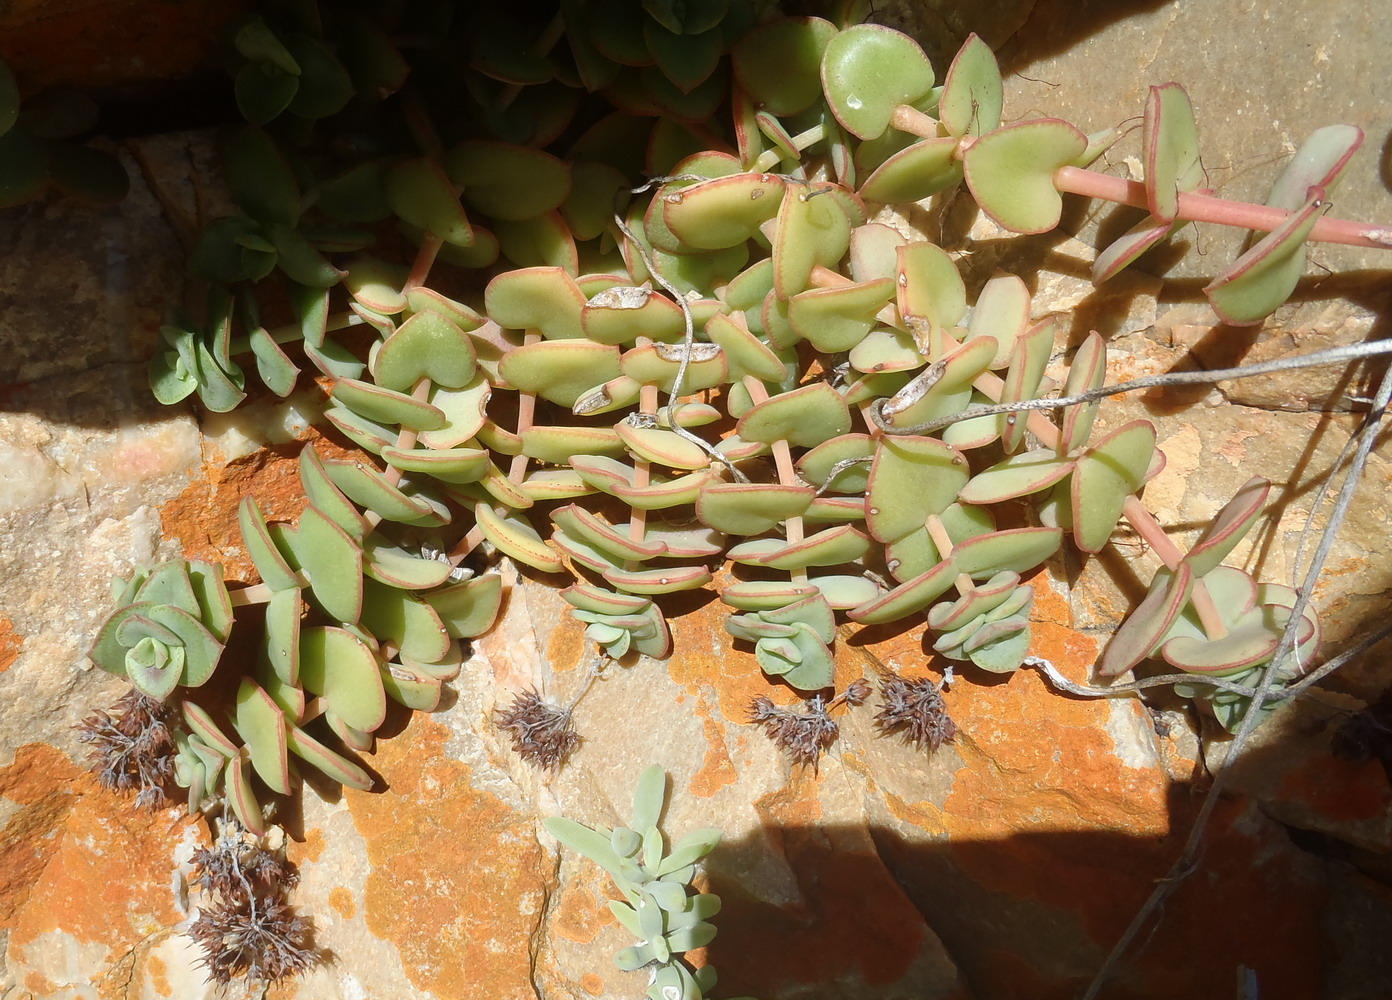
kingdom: Plantae
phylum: Tracheophyta
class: Magnoliopsida
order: Saxifragales
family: Crassulaceae
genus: Crassula
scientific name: Crassula pellucida
